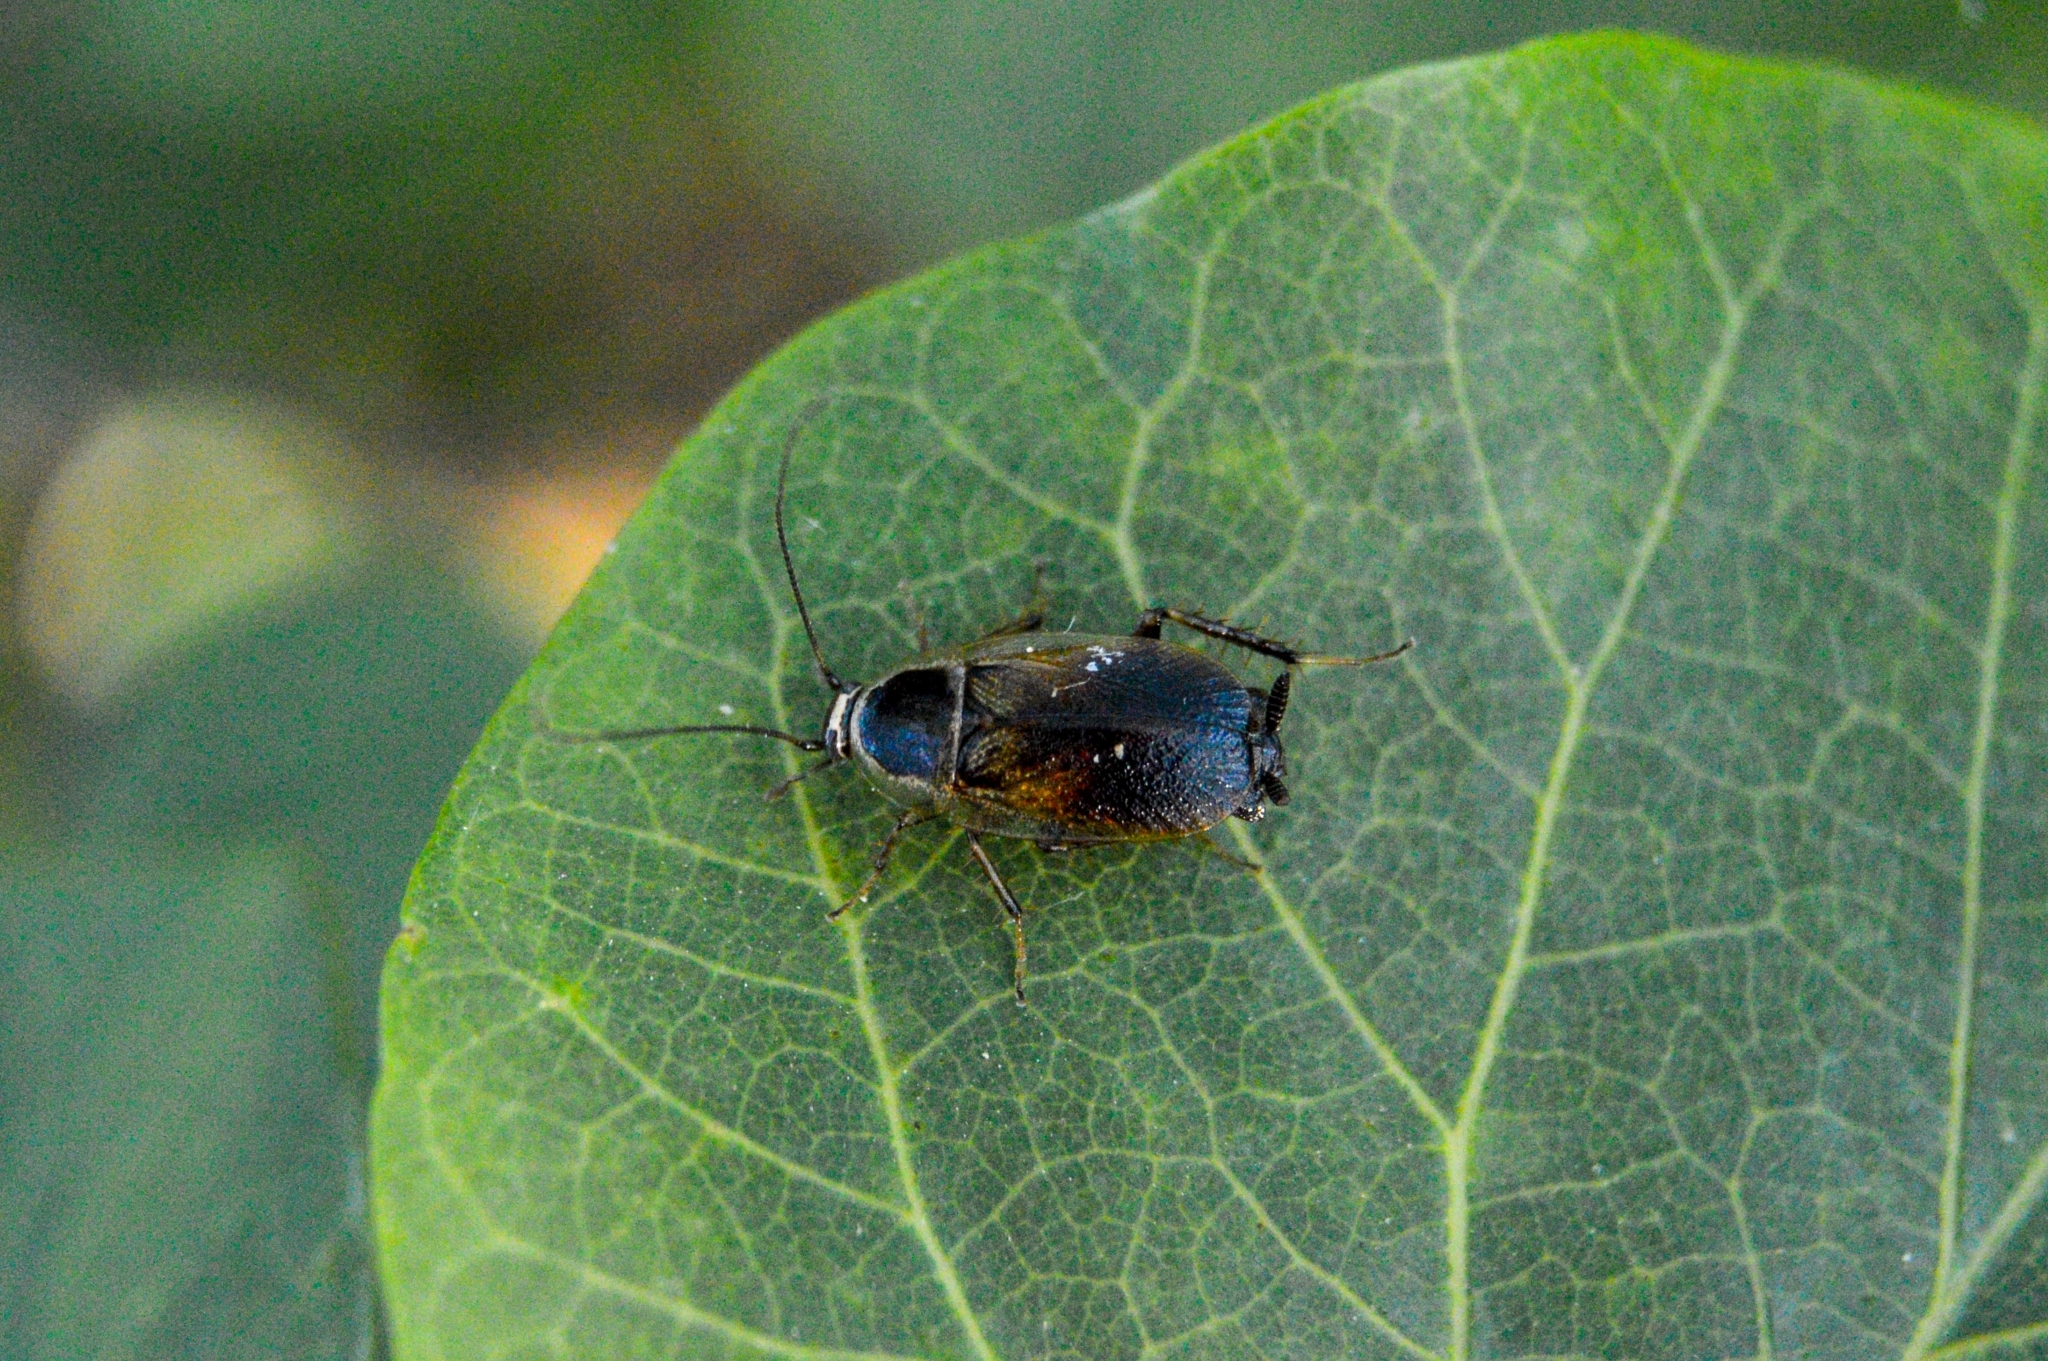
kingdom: Animalia
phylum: Arthropoda
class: Insecta
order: Blattodea
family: Ectobiidae
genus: Phyllodromica
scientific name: Phyllodromica polita
